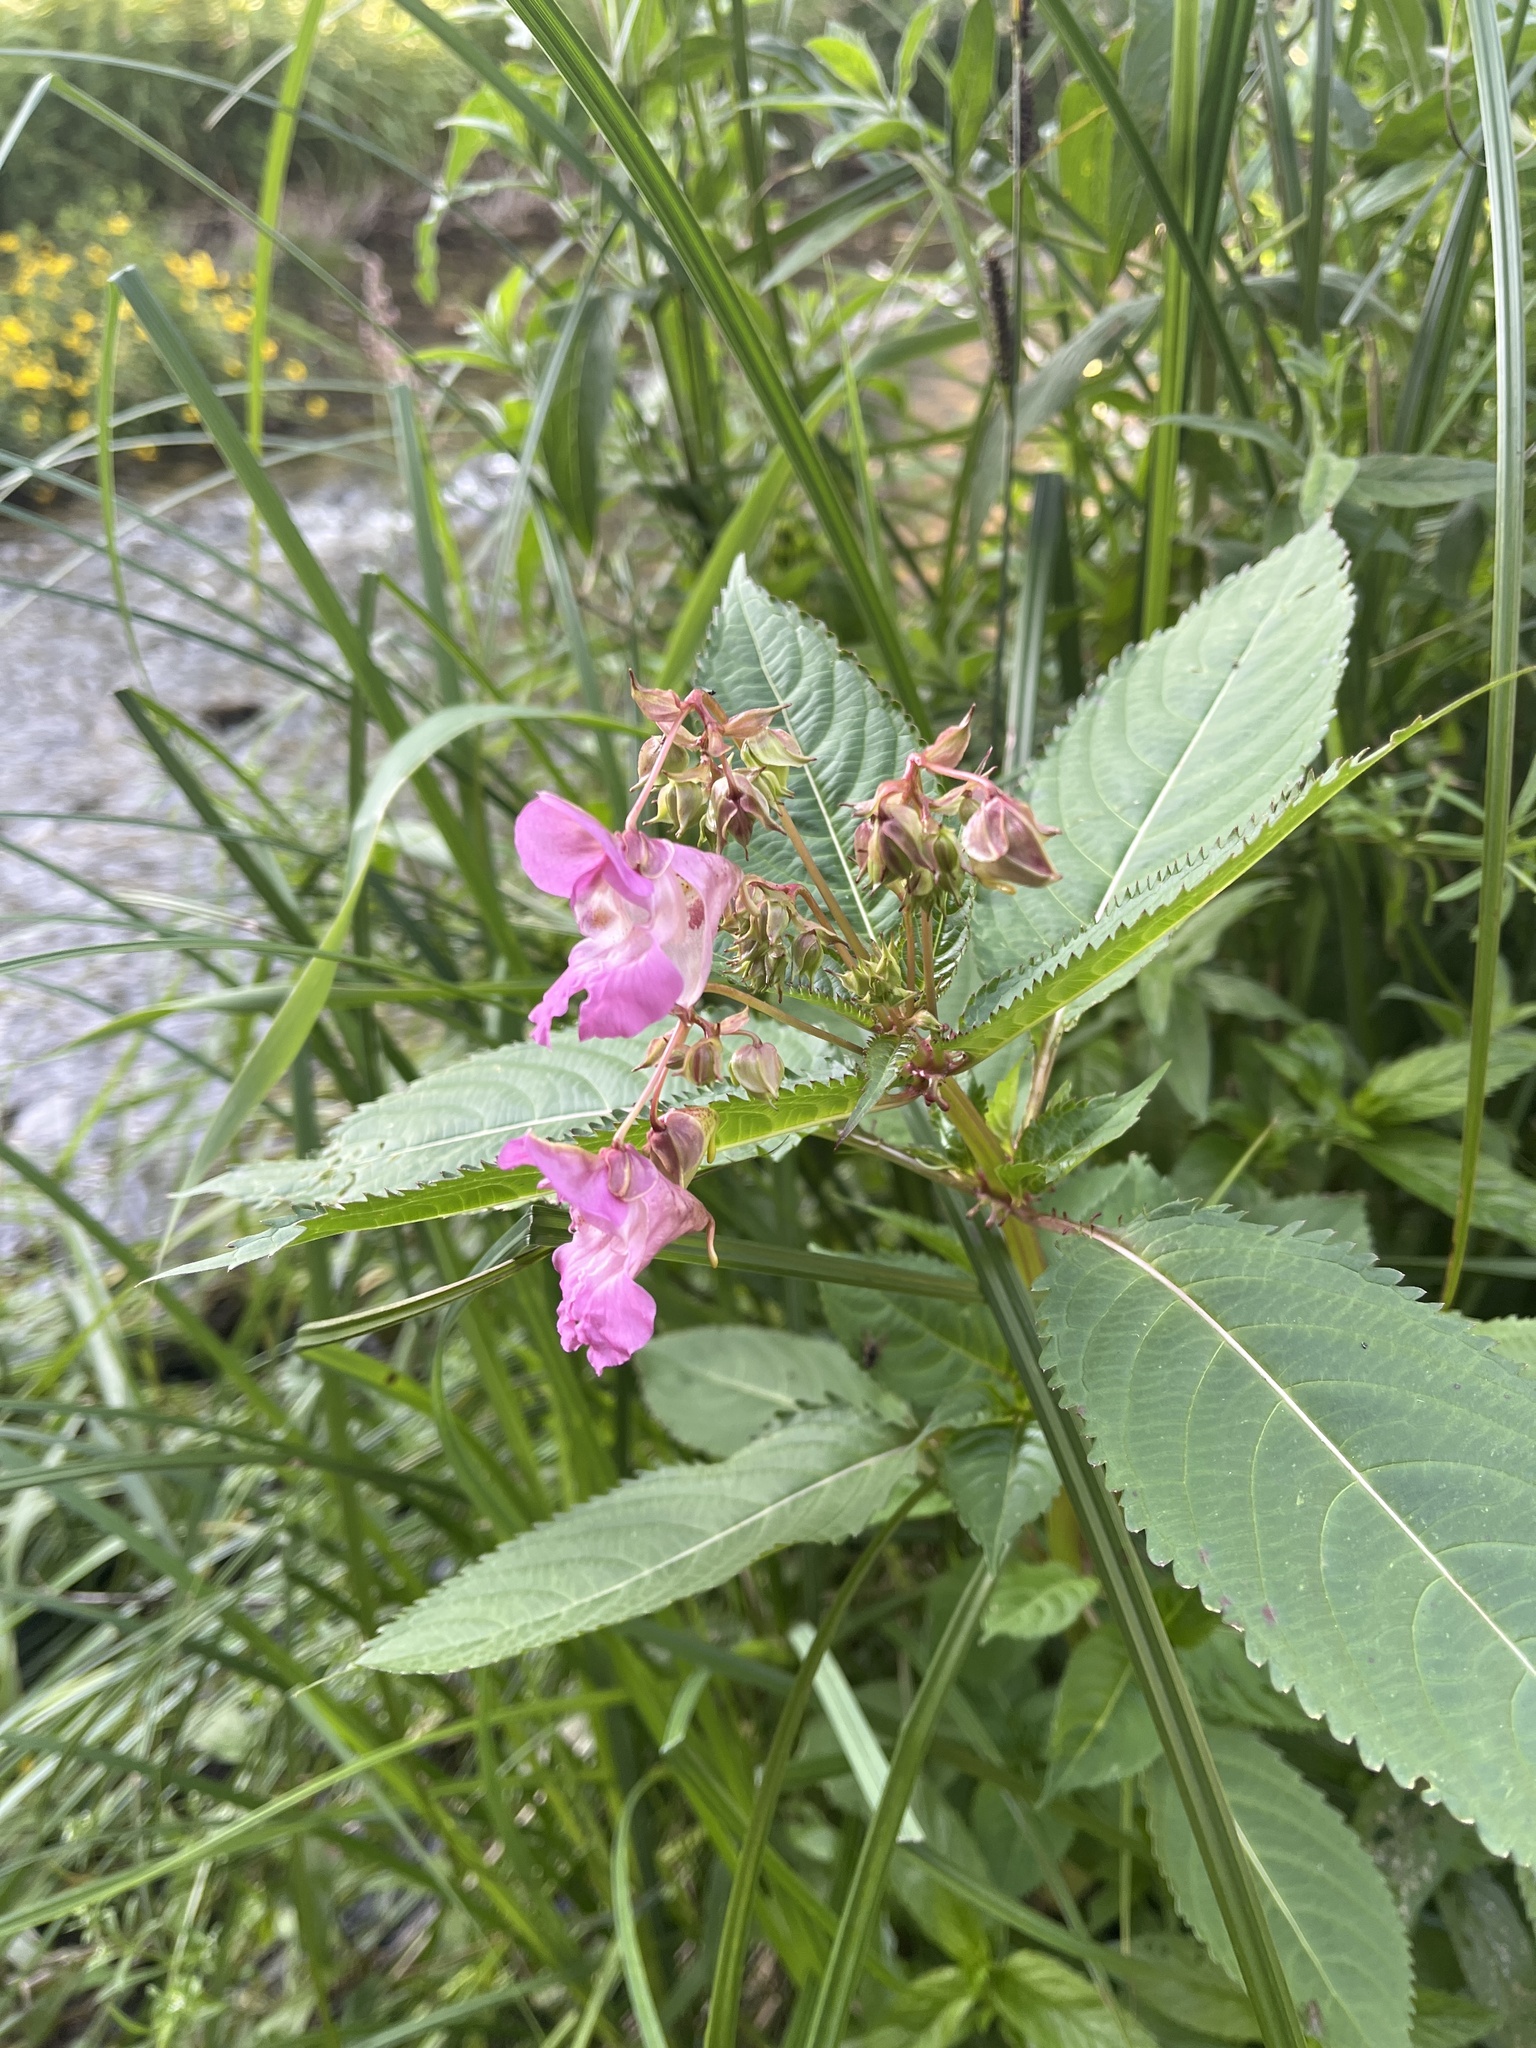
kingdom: Plantae
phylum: Tracheophyta
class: Magnoliopsida
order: Ericales
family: Balsaminaceae
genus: Impatiens
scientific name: Impatiens glandulifera
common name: Himalayan balsam
